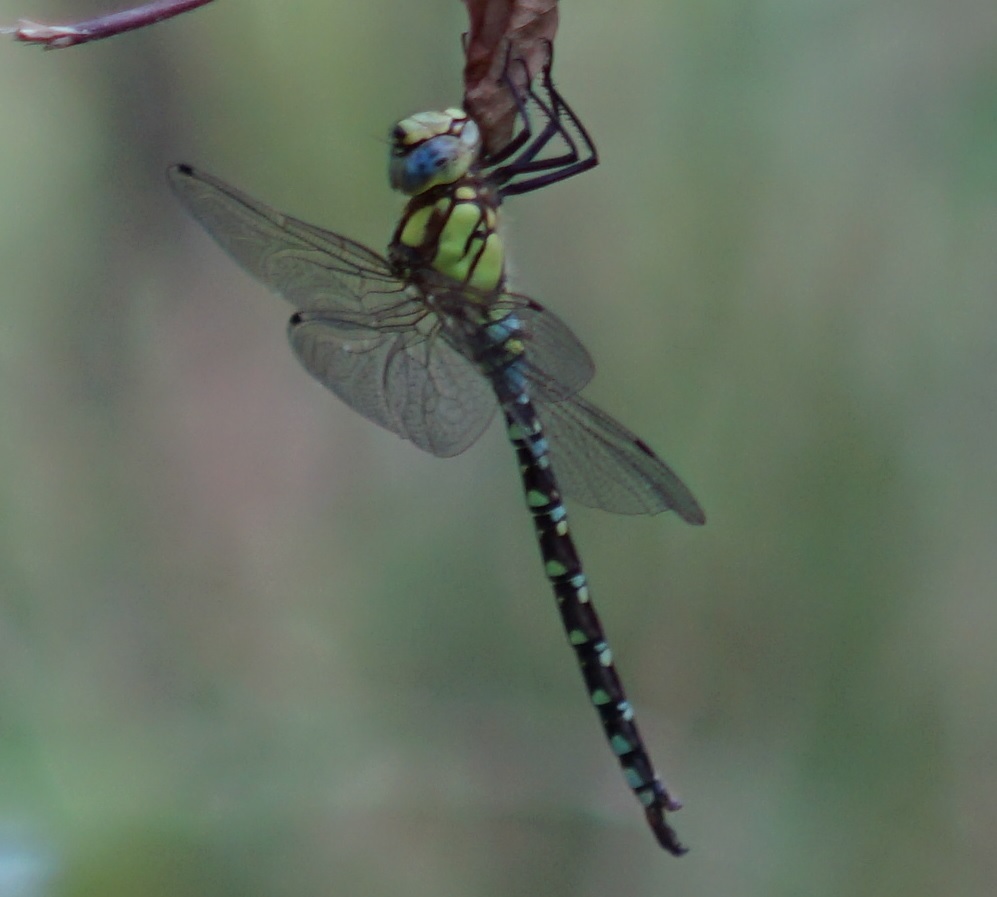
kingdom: Animalia
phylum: Arthropoda
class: Insecta
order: Odonata
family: Aeshnidae
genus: Aeshna
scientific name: Aeshna cyanea
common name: Southern hawker
